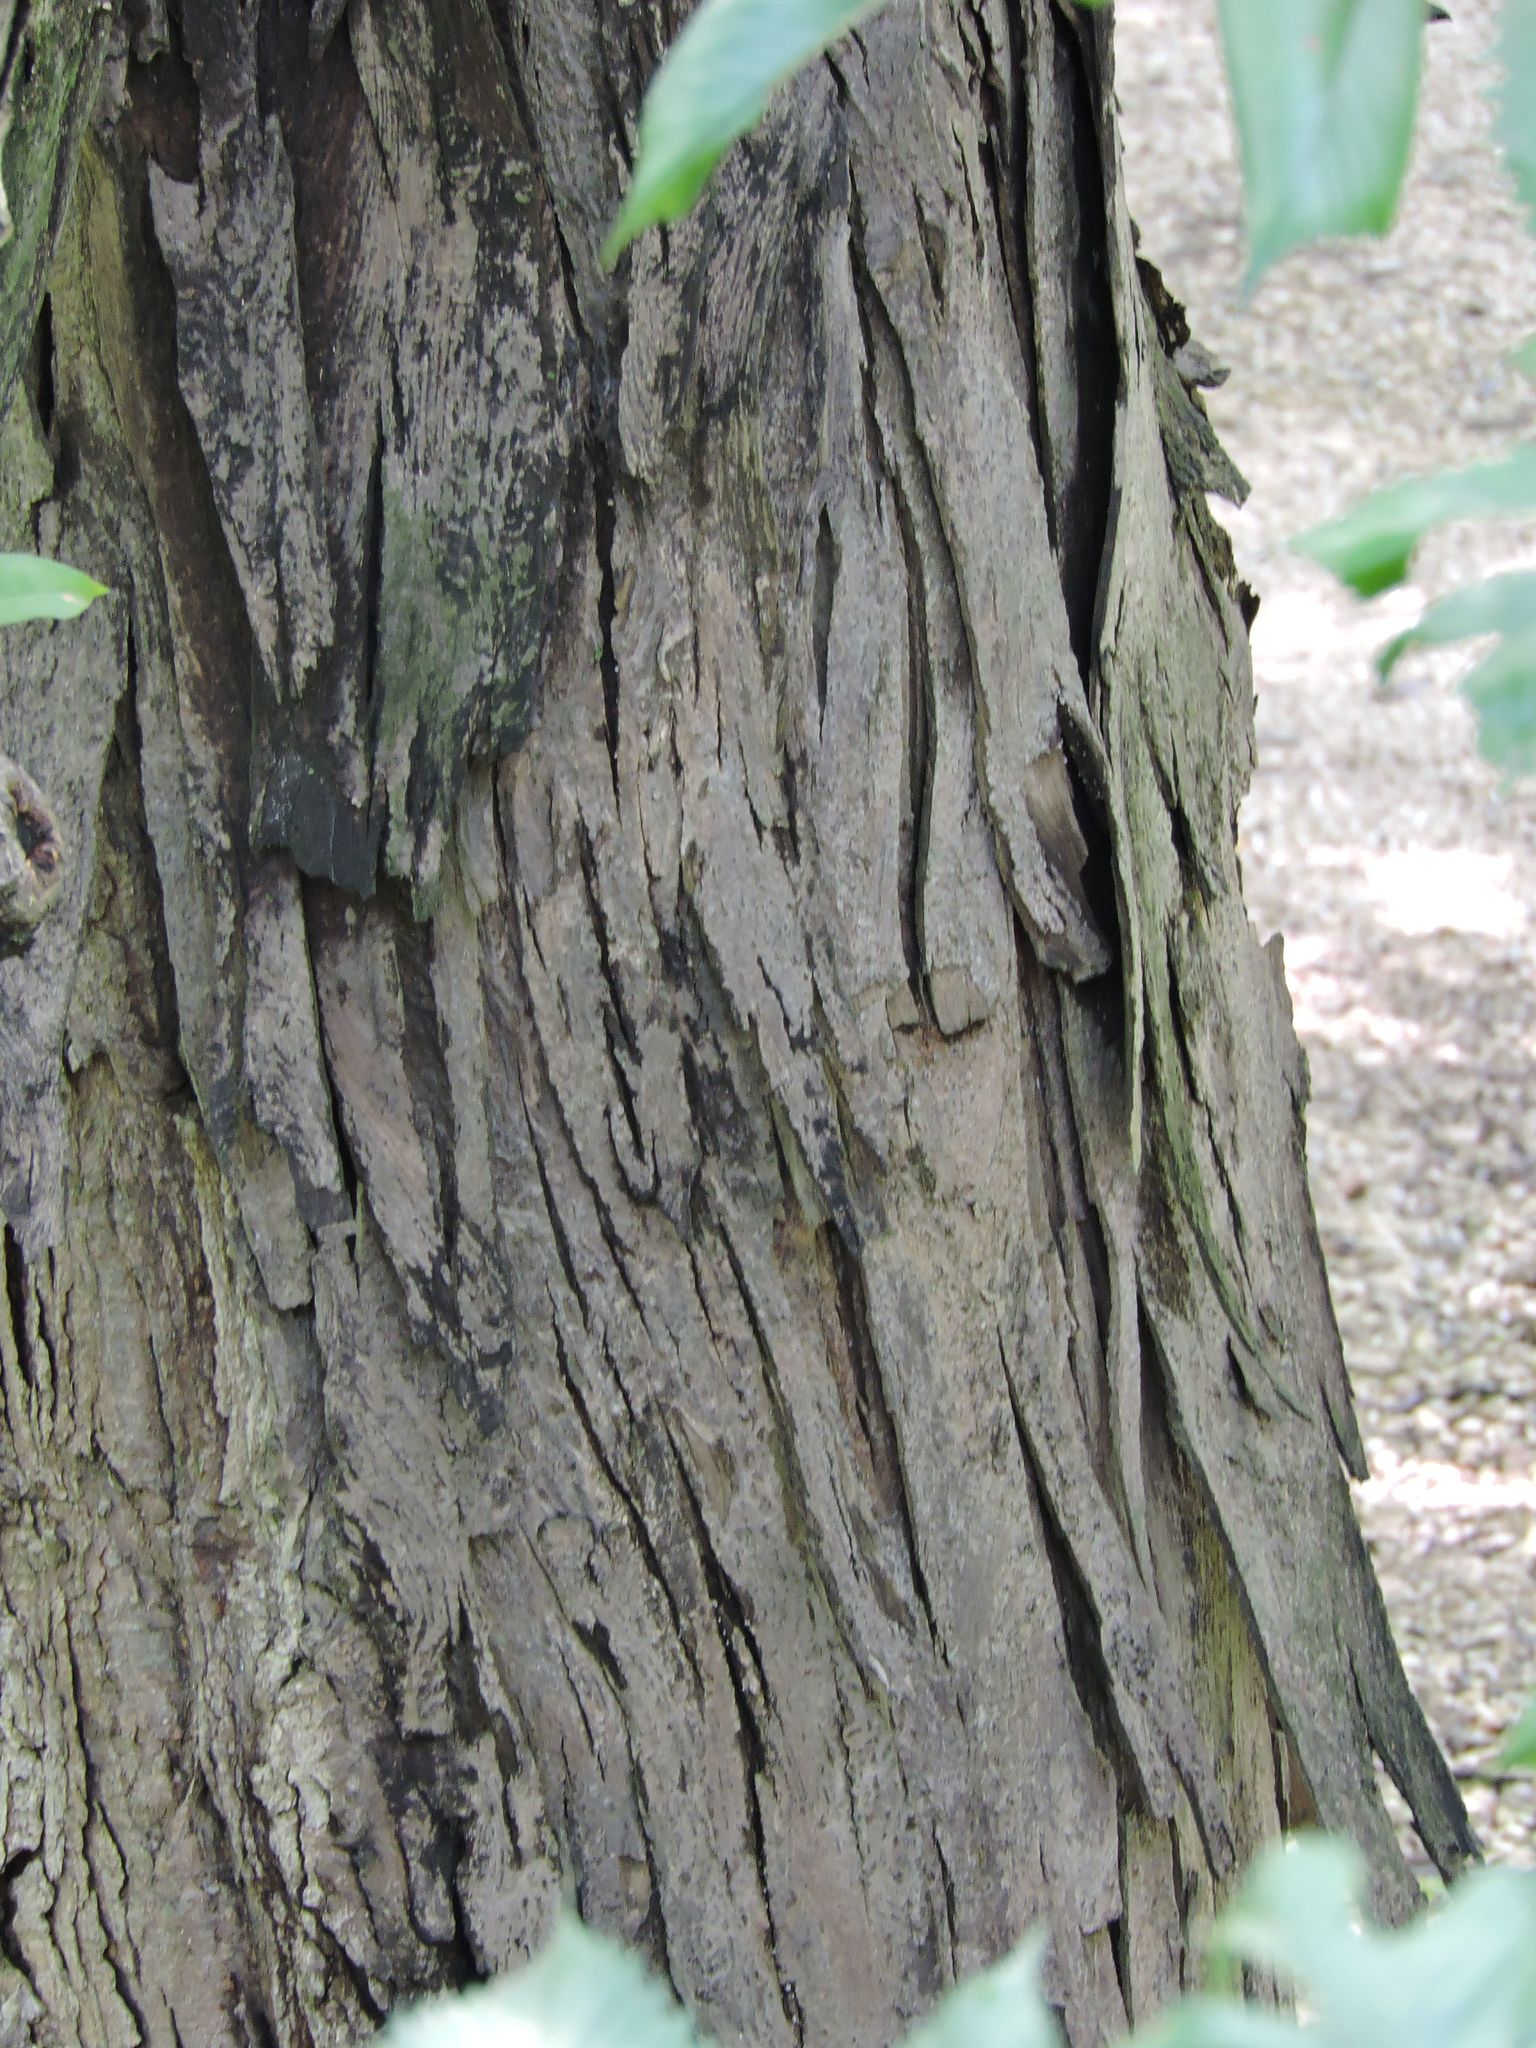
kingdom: Plantae
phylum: Tracheophyta
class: Magnoliopsida
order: Fagales
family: Juglandaceae
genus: Carya
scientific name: Carya ovata
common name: Shagbark hickory
